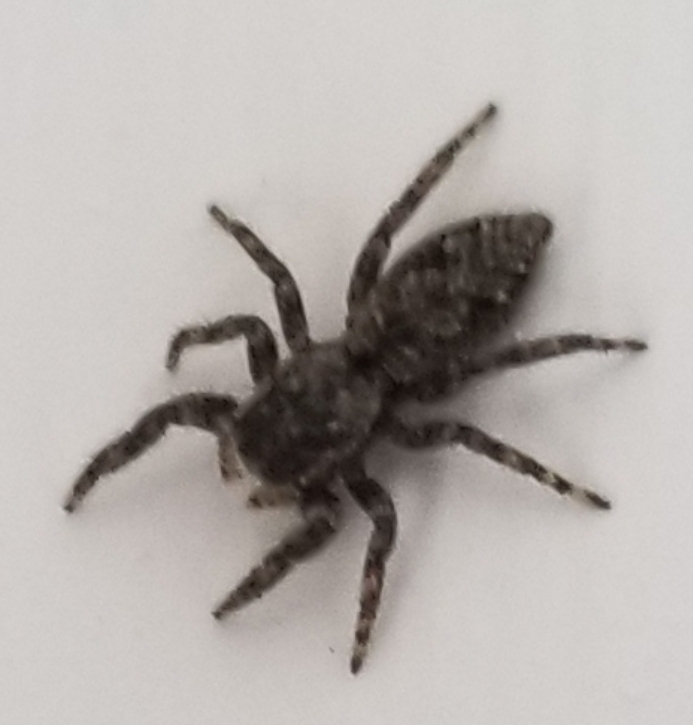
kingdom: Animalia
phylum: Arthropoda
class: Arachnida
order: Araneae
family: Salticidae
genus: Platycryptus
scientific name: Platycryptus undatus
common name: Tan jumping spider
